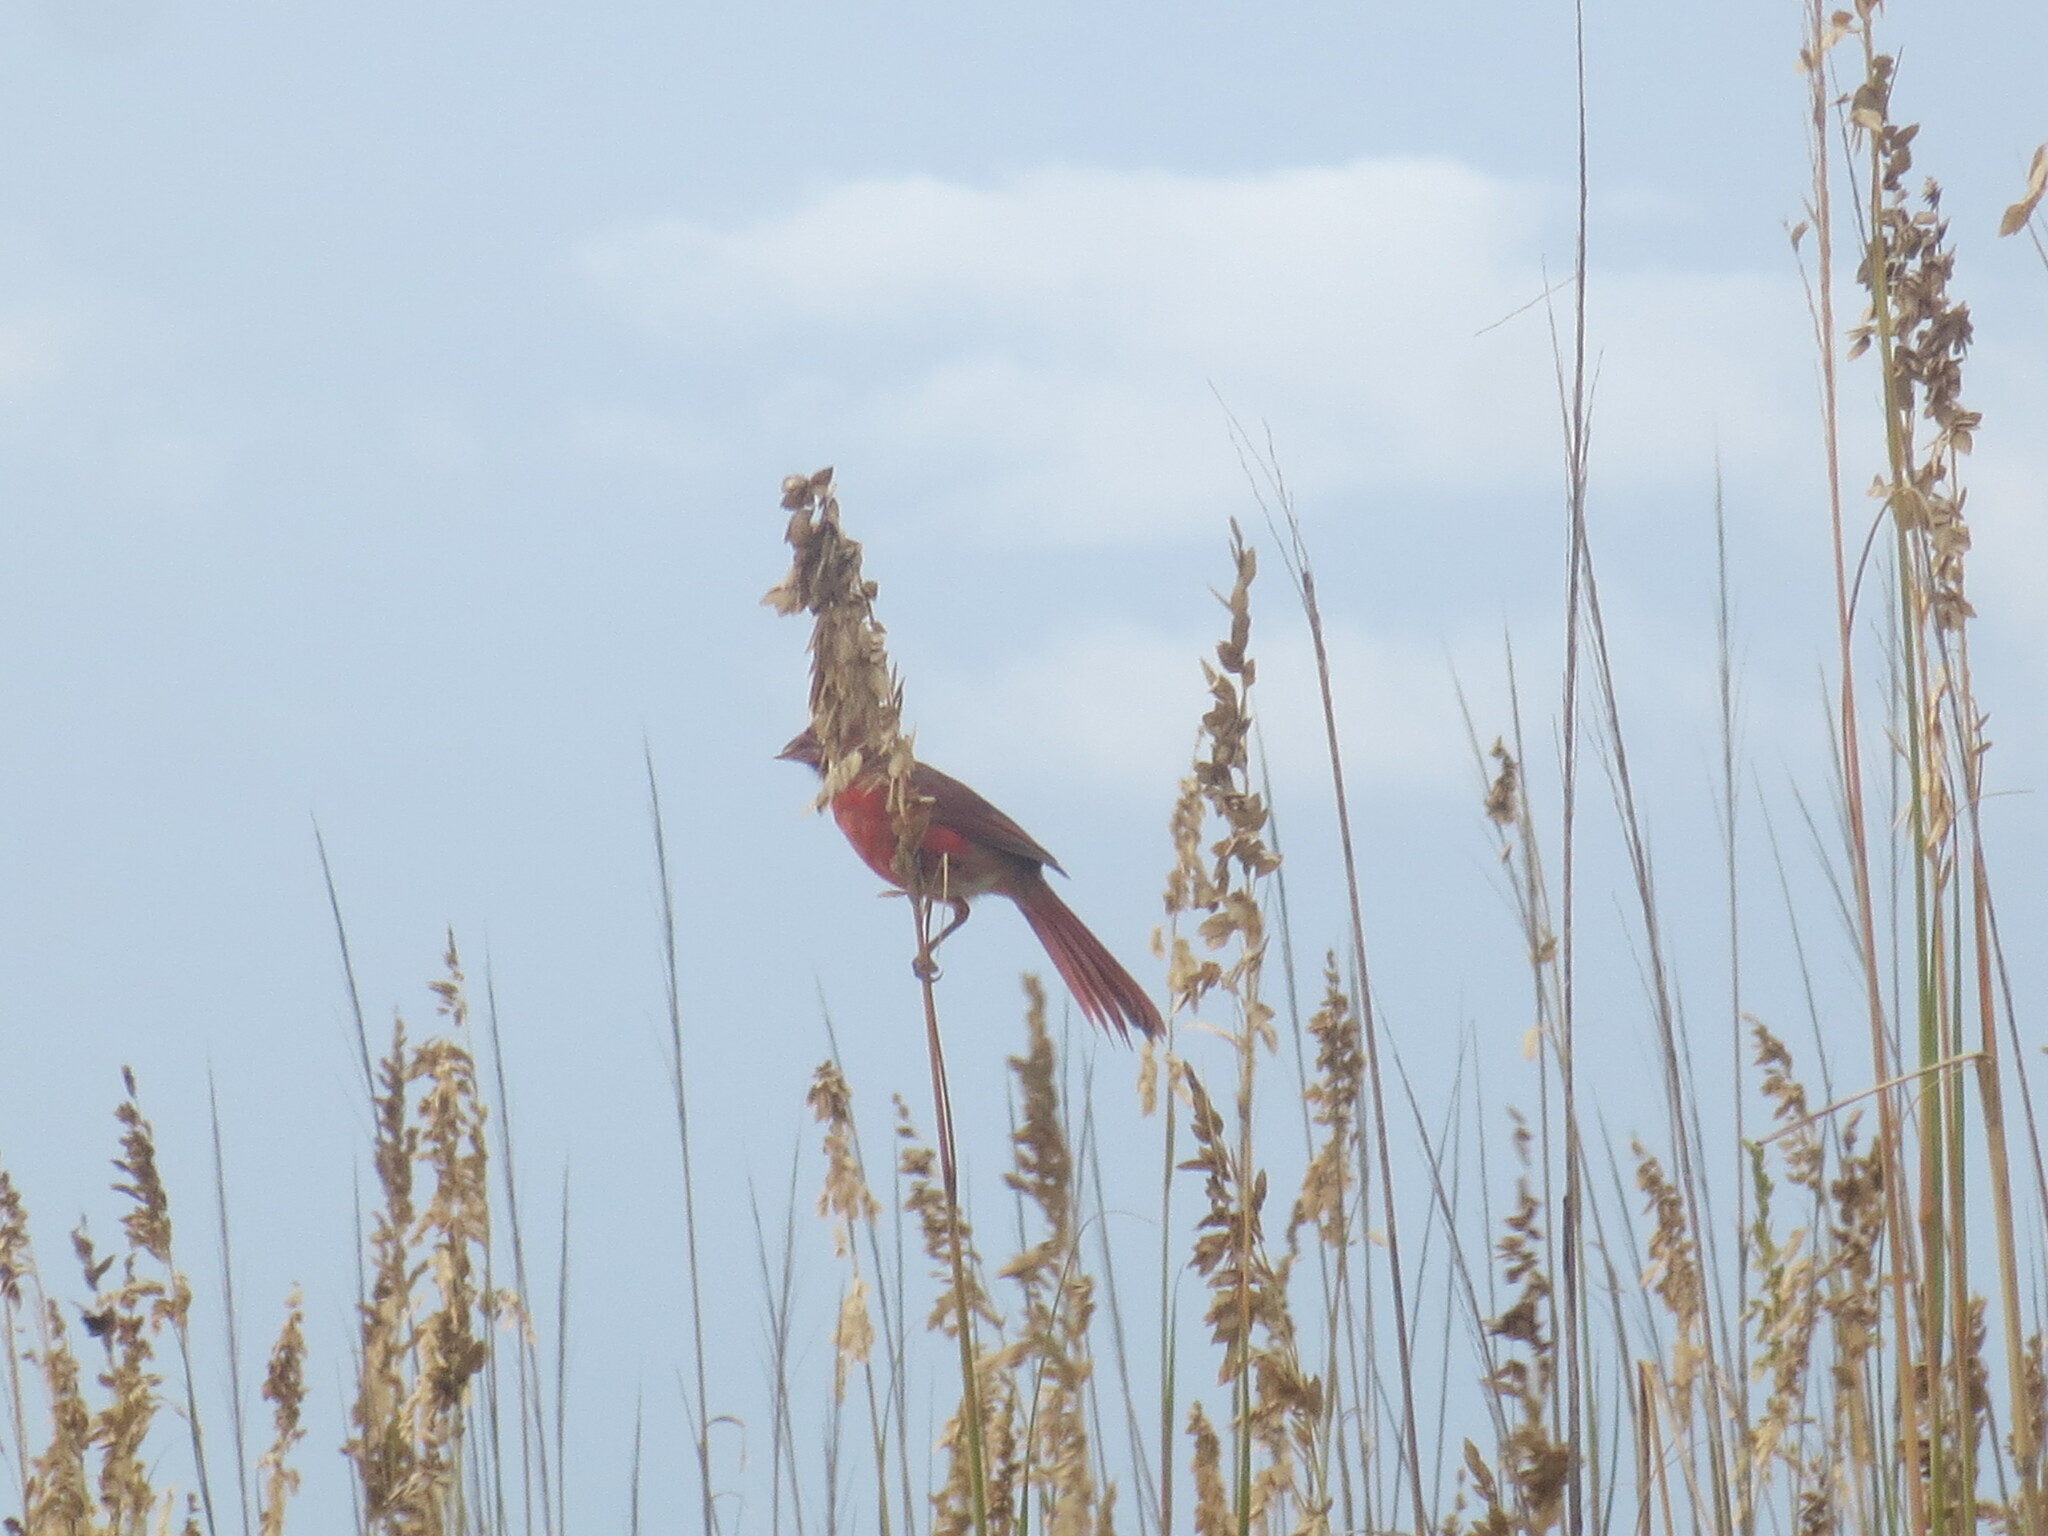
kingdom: Animalia
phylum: Chordata
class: Aves
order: Passeriformes
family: Cardinalidae
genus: Cardinalis
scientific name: Cardinalis cardinalis
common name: Northern cardinal
